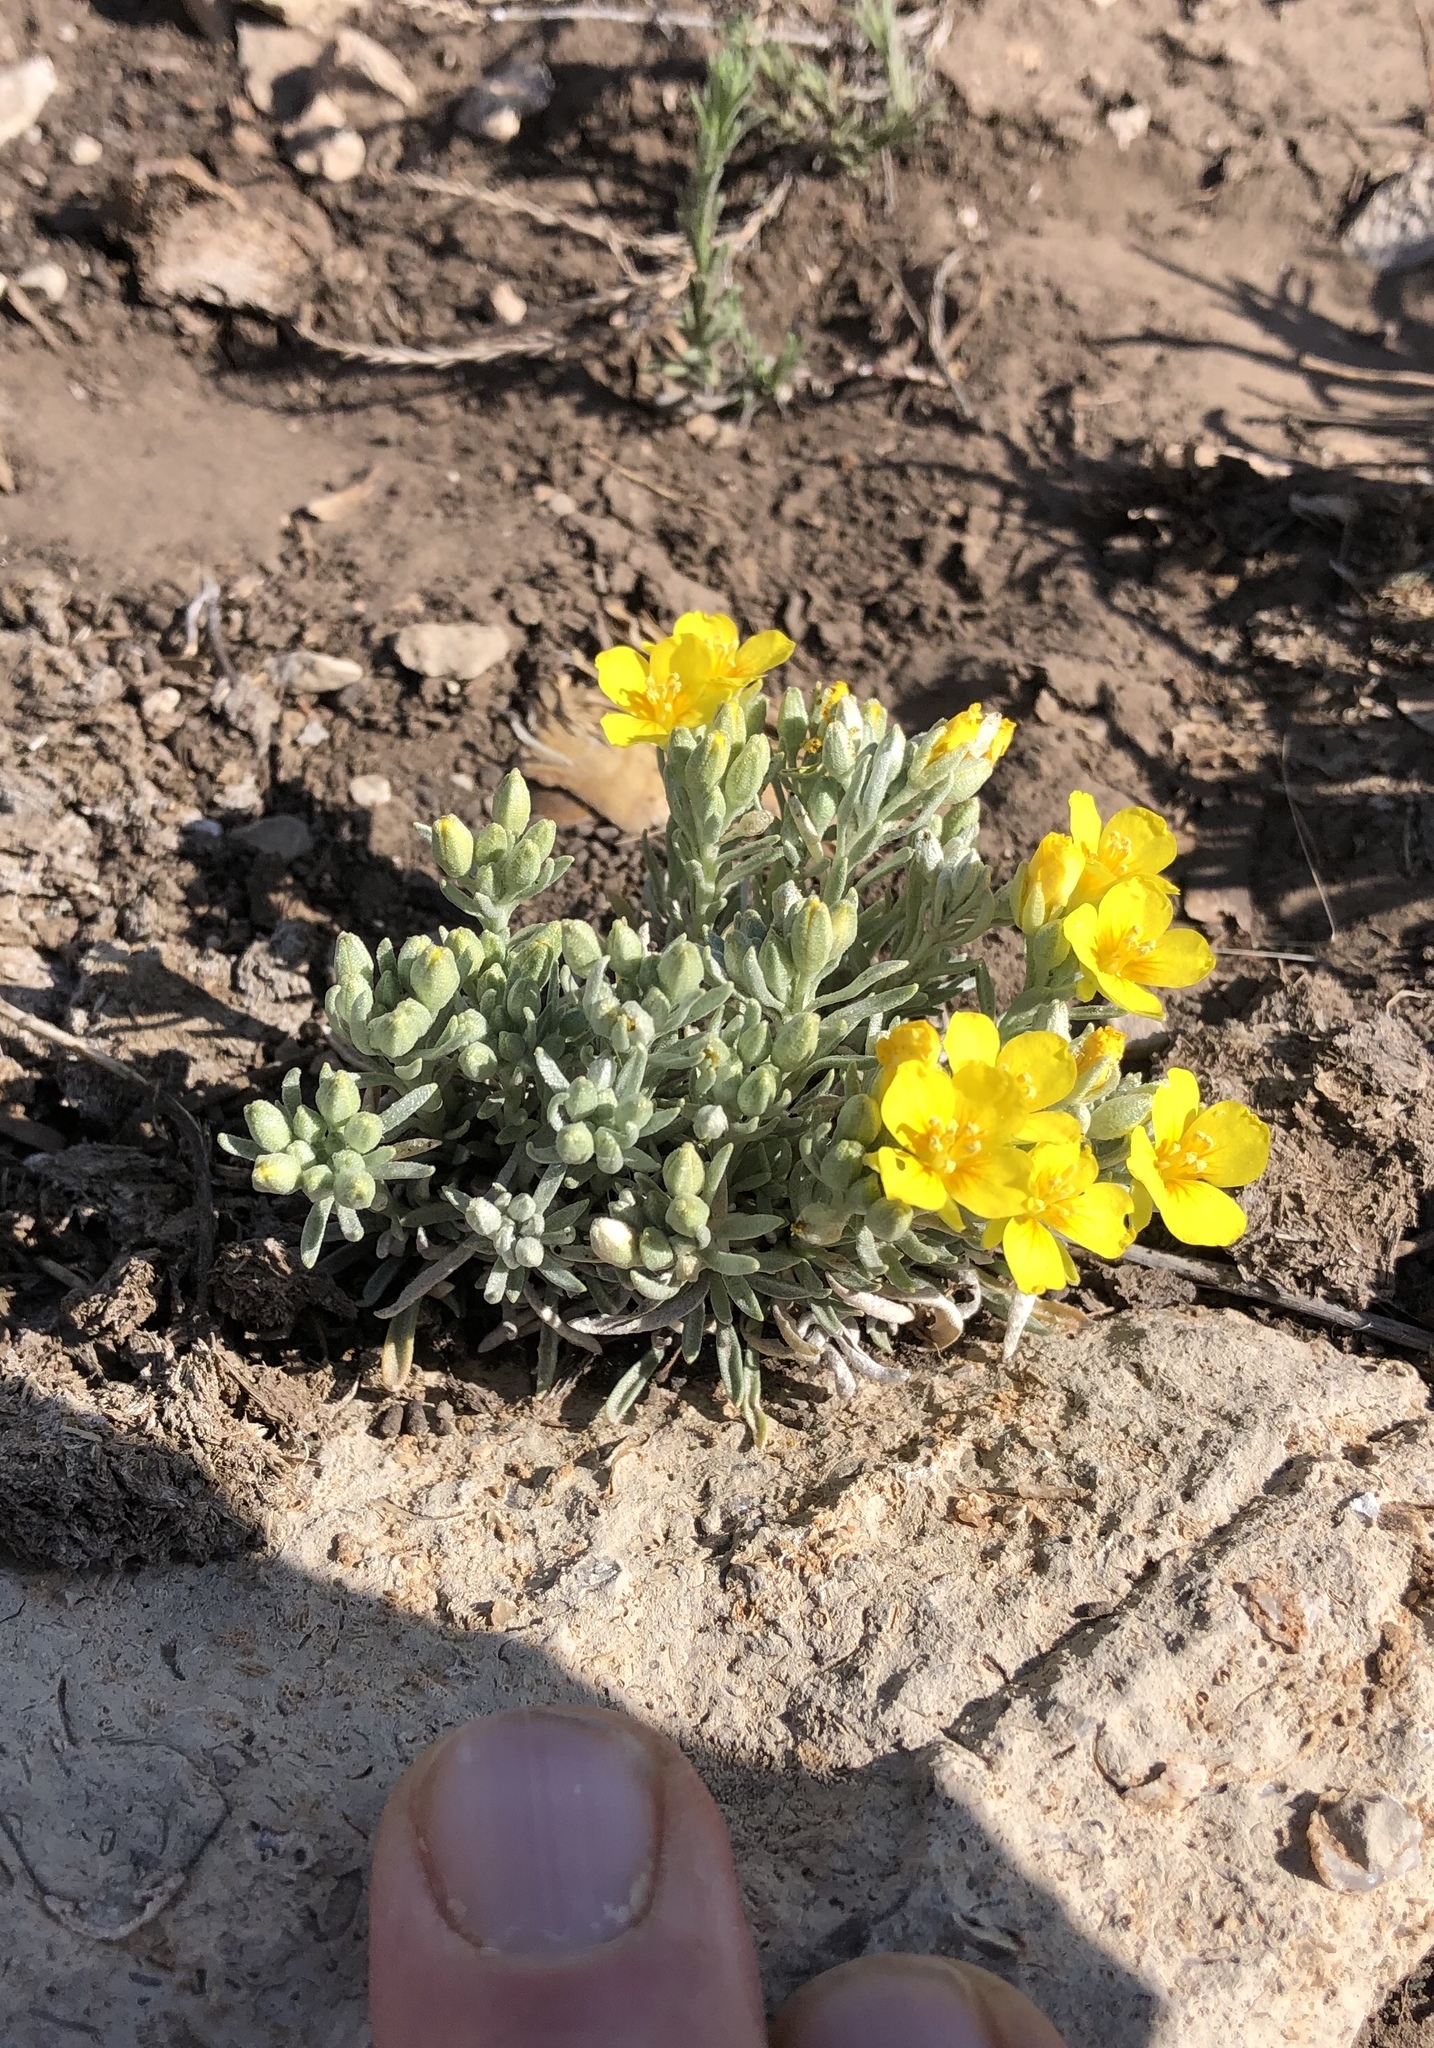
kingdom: Plantae
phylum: Tracheophyta
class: Magnoliopsida
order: Brassicales
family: Brassicaceae
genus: Physaria
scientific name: Physaria fendleri
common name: Fendler's bladderpod
